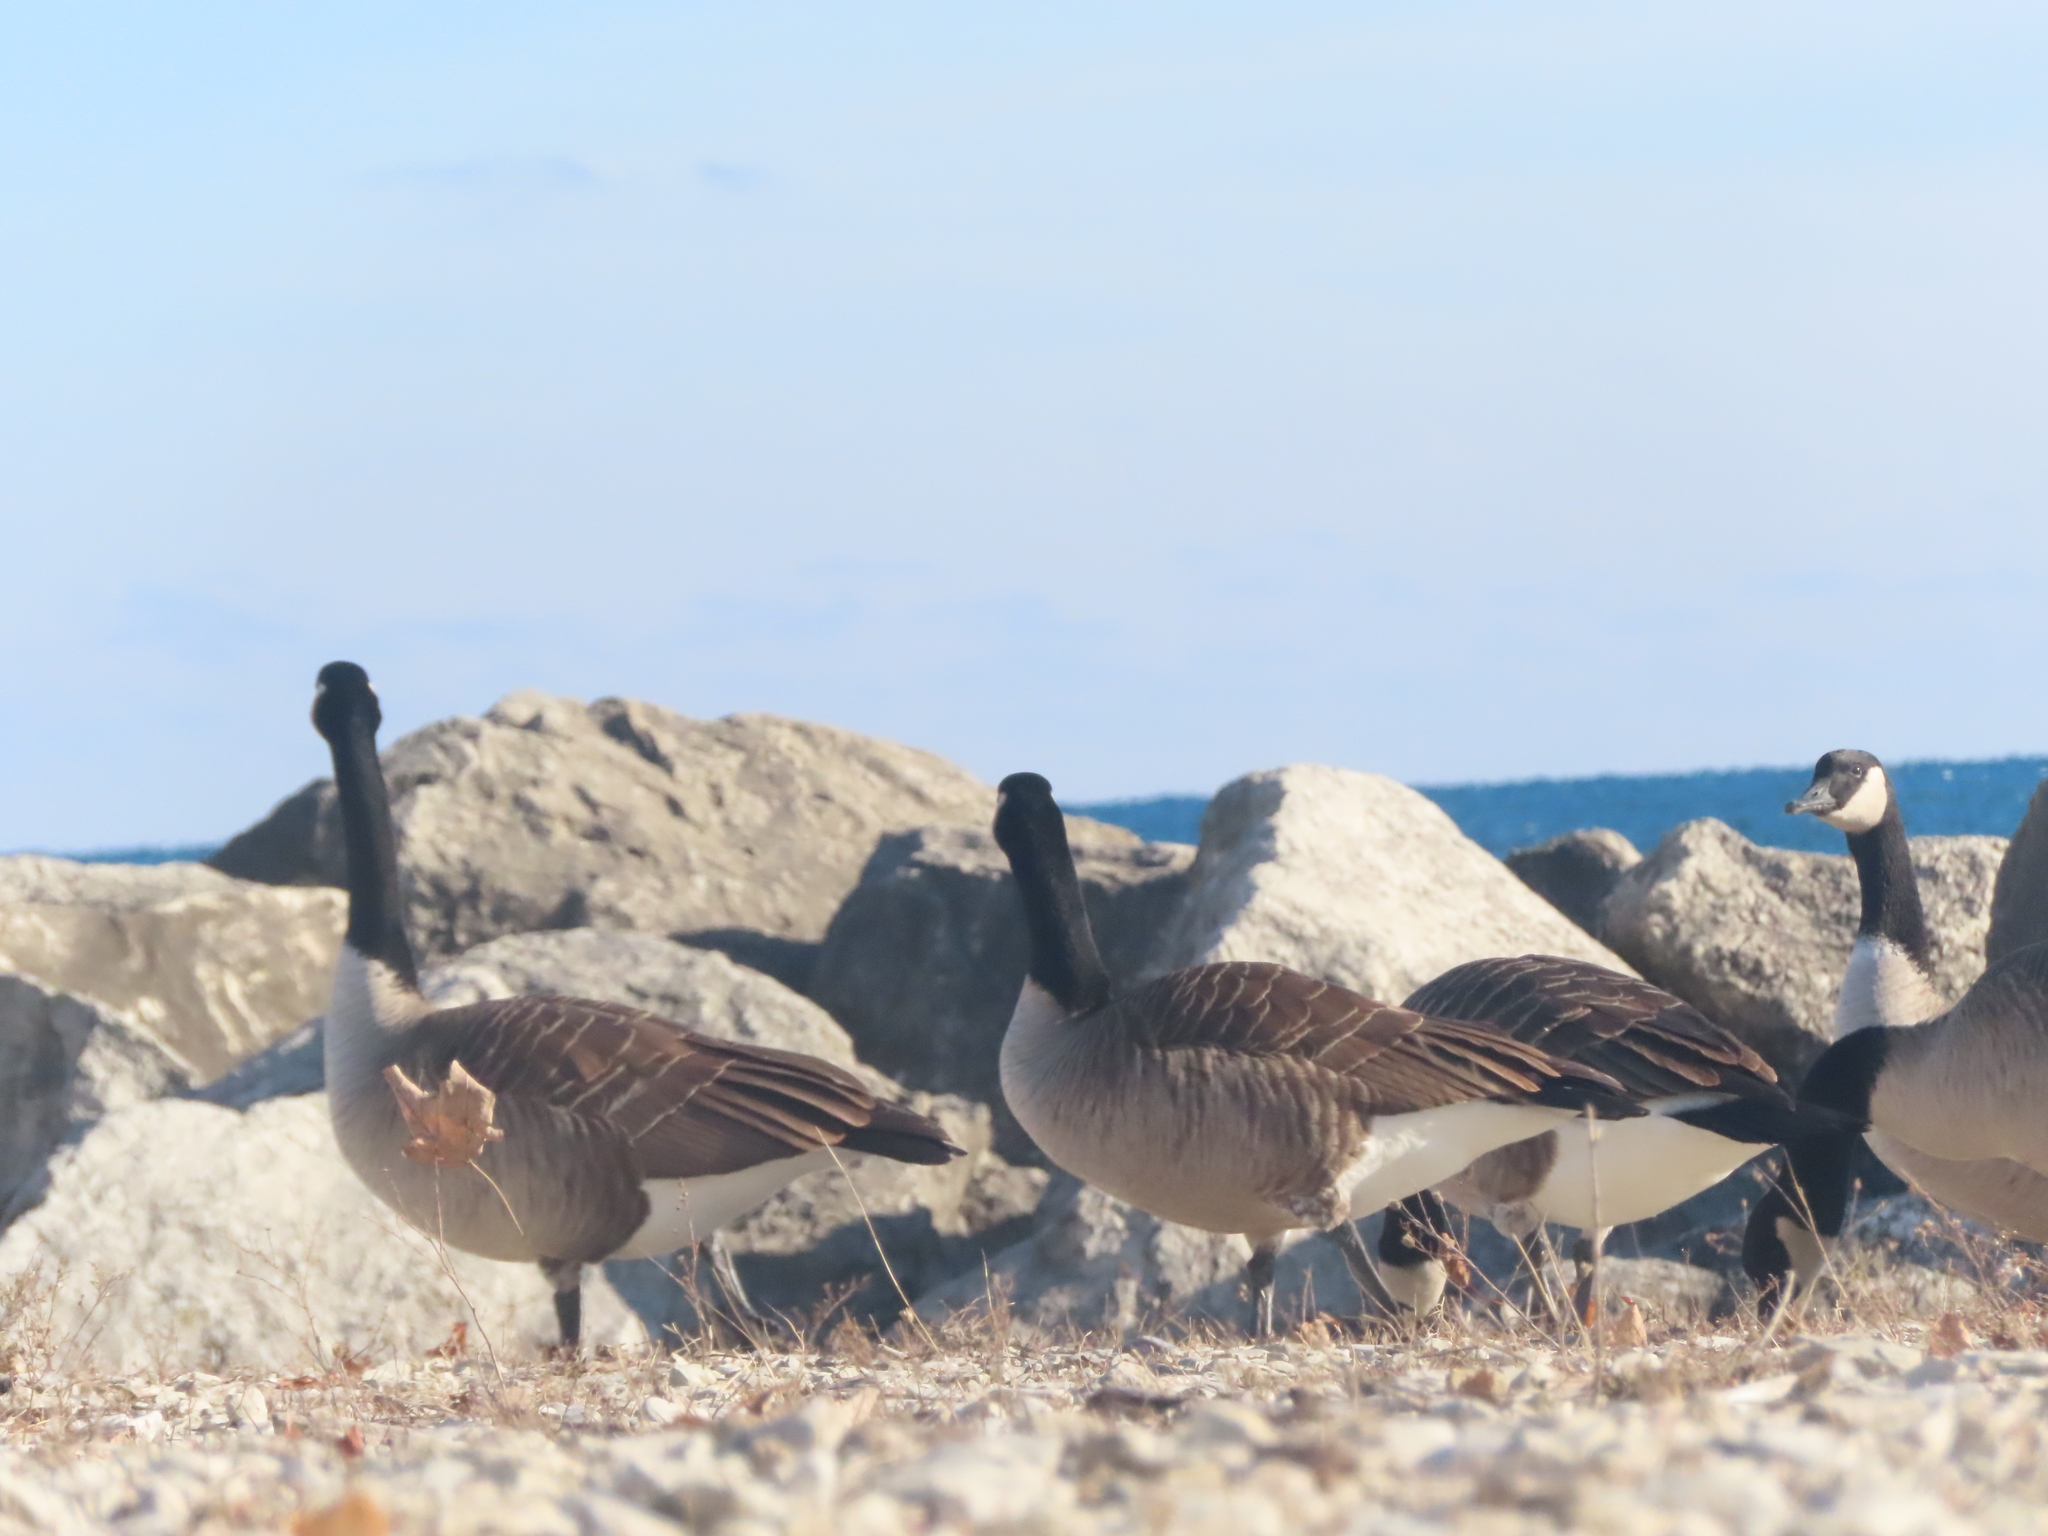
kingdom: Animalia
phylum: Chordata
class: Aves
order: Anseriformes
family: Anatidae
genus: Branta
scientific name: Branta canadensis
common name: Canada goose
